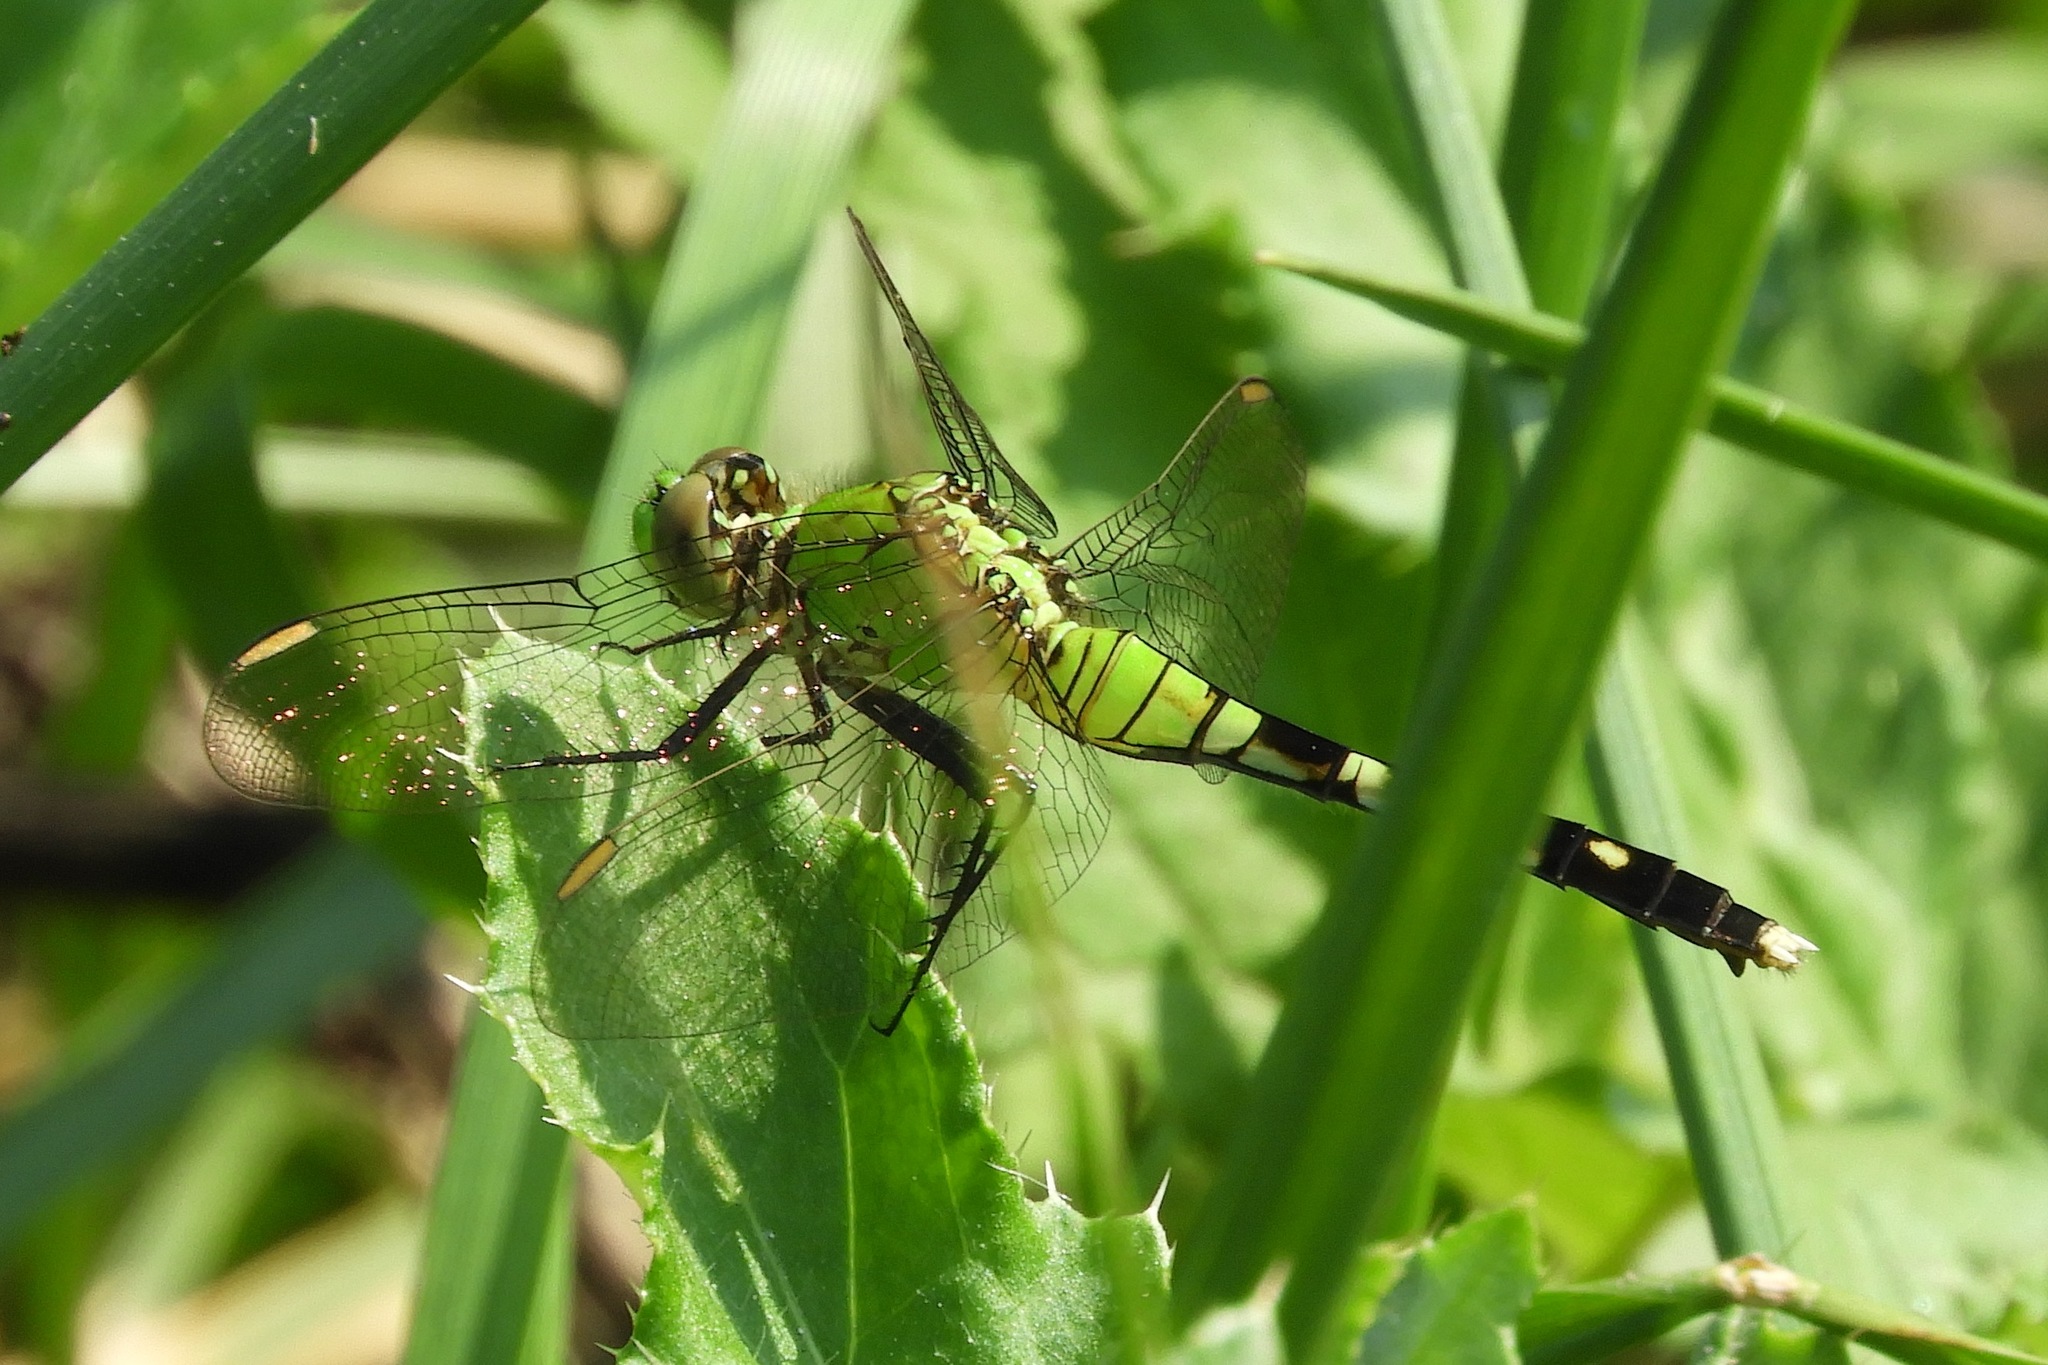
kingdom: Animalia
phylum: Arthropoda
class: Insecta
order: Odonata
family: Libellulidae
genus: Erythemis
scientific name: Erythemis simplicicollis
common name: Eastern pondhawk
